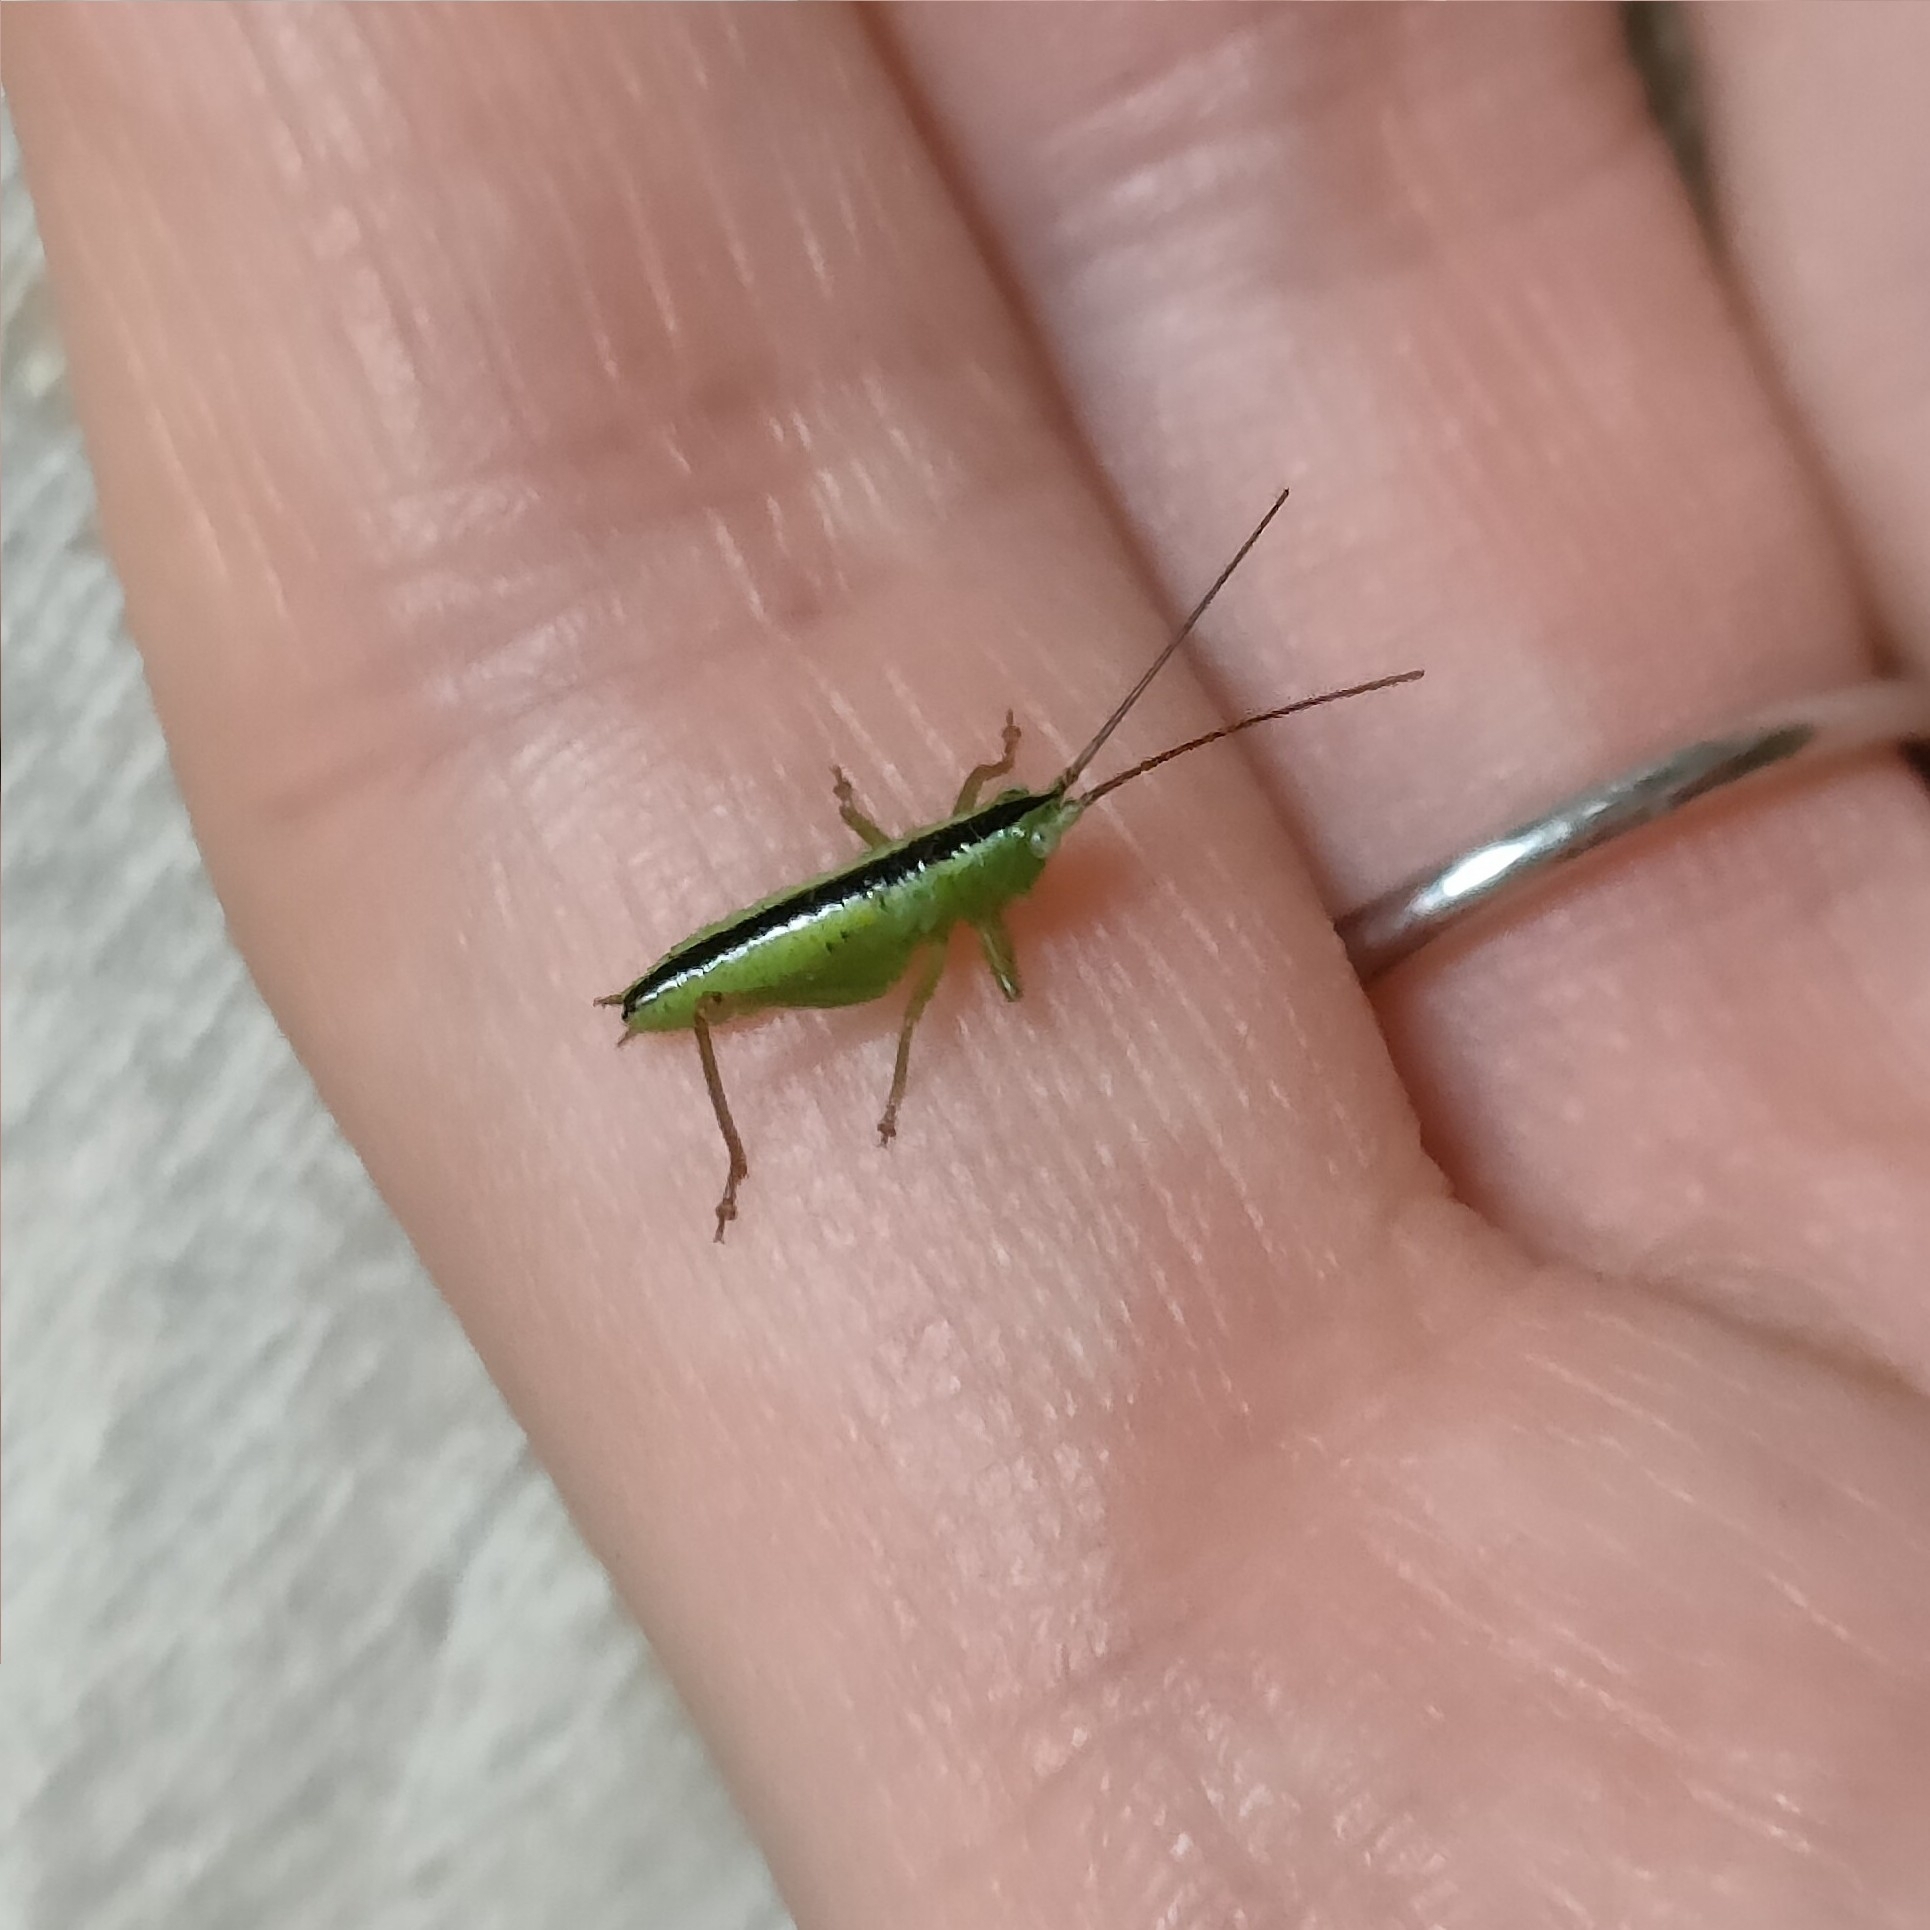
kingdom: Animalia
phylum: Arthropoda
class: Insecta
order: Orthoptera
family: Tettigoniidae
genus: Conocephalus
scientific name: Conocephalus fuscus
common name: Long-winged conehead
